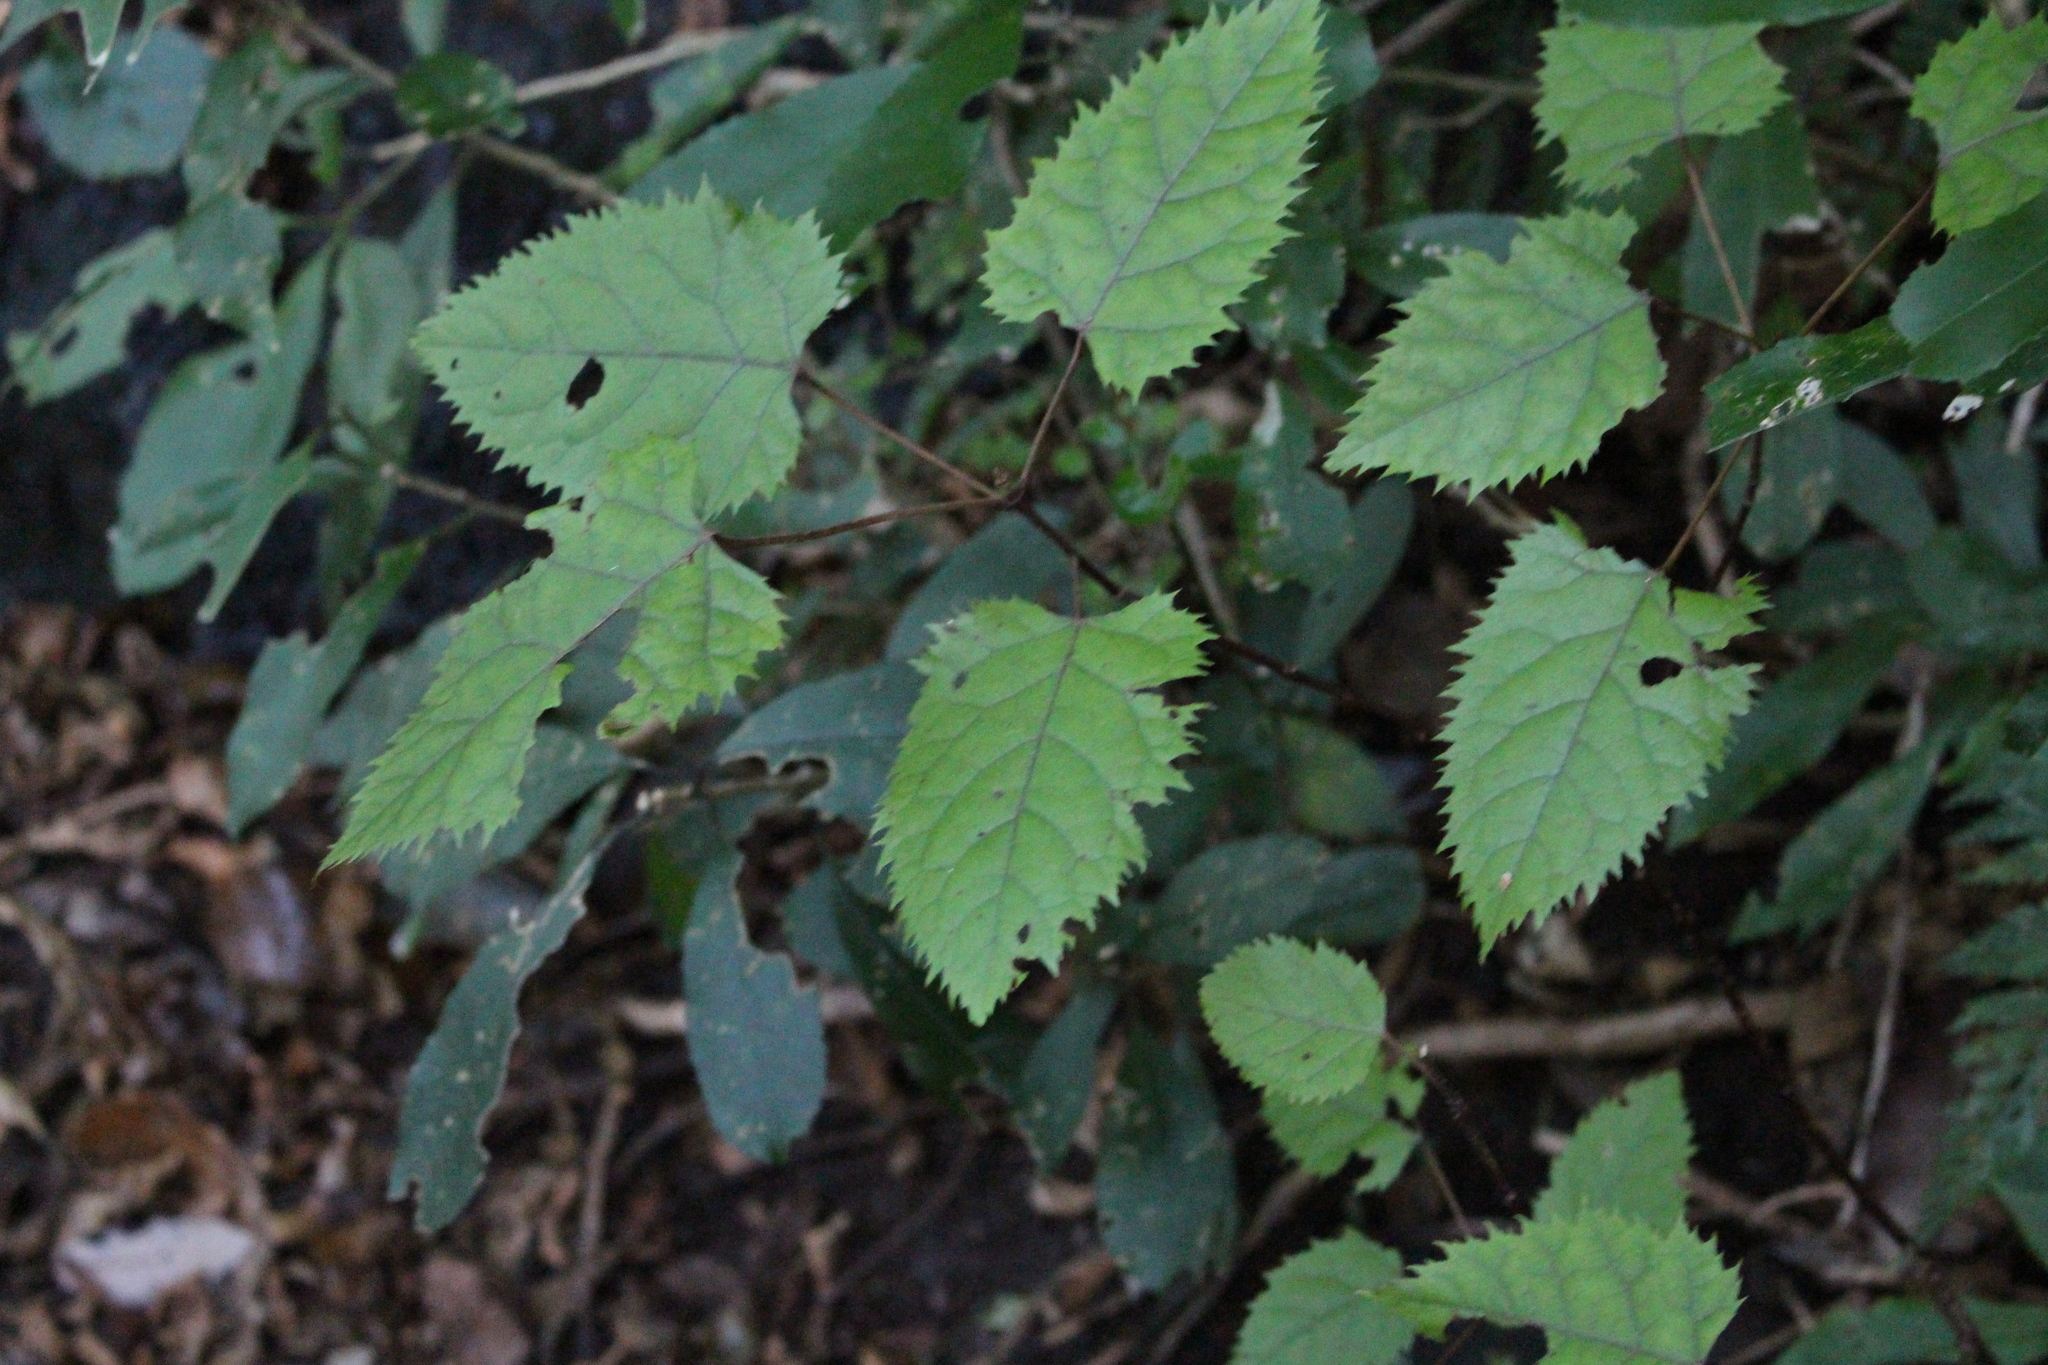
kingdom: Plantae
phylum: Tracheophyta
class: Magnoliopsida
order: Oxalidales
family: Elaeocarpaceae
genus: Aristotelia
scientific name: Aristotelia serrata
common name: New zealand wineberry
